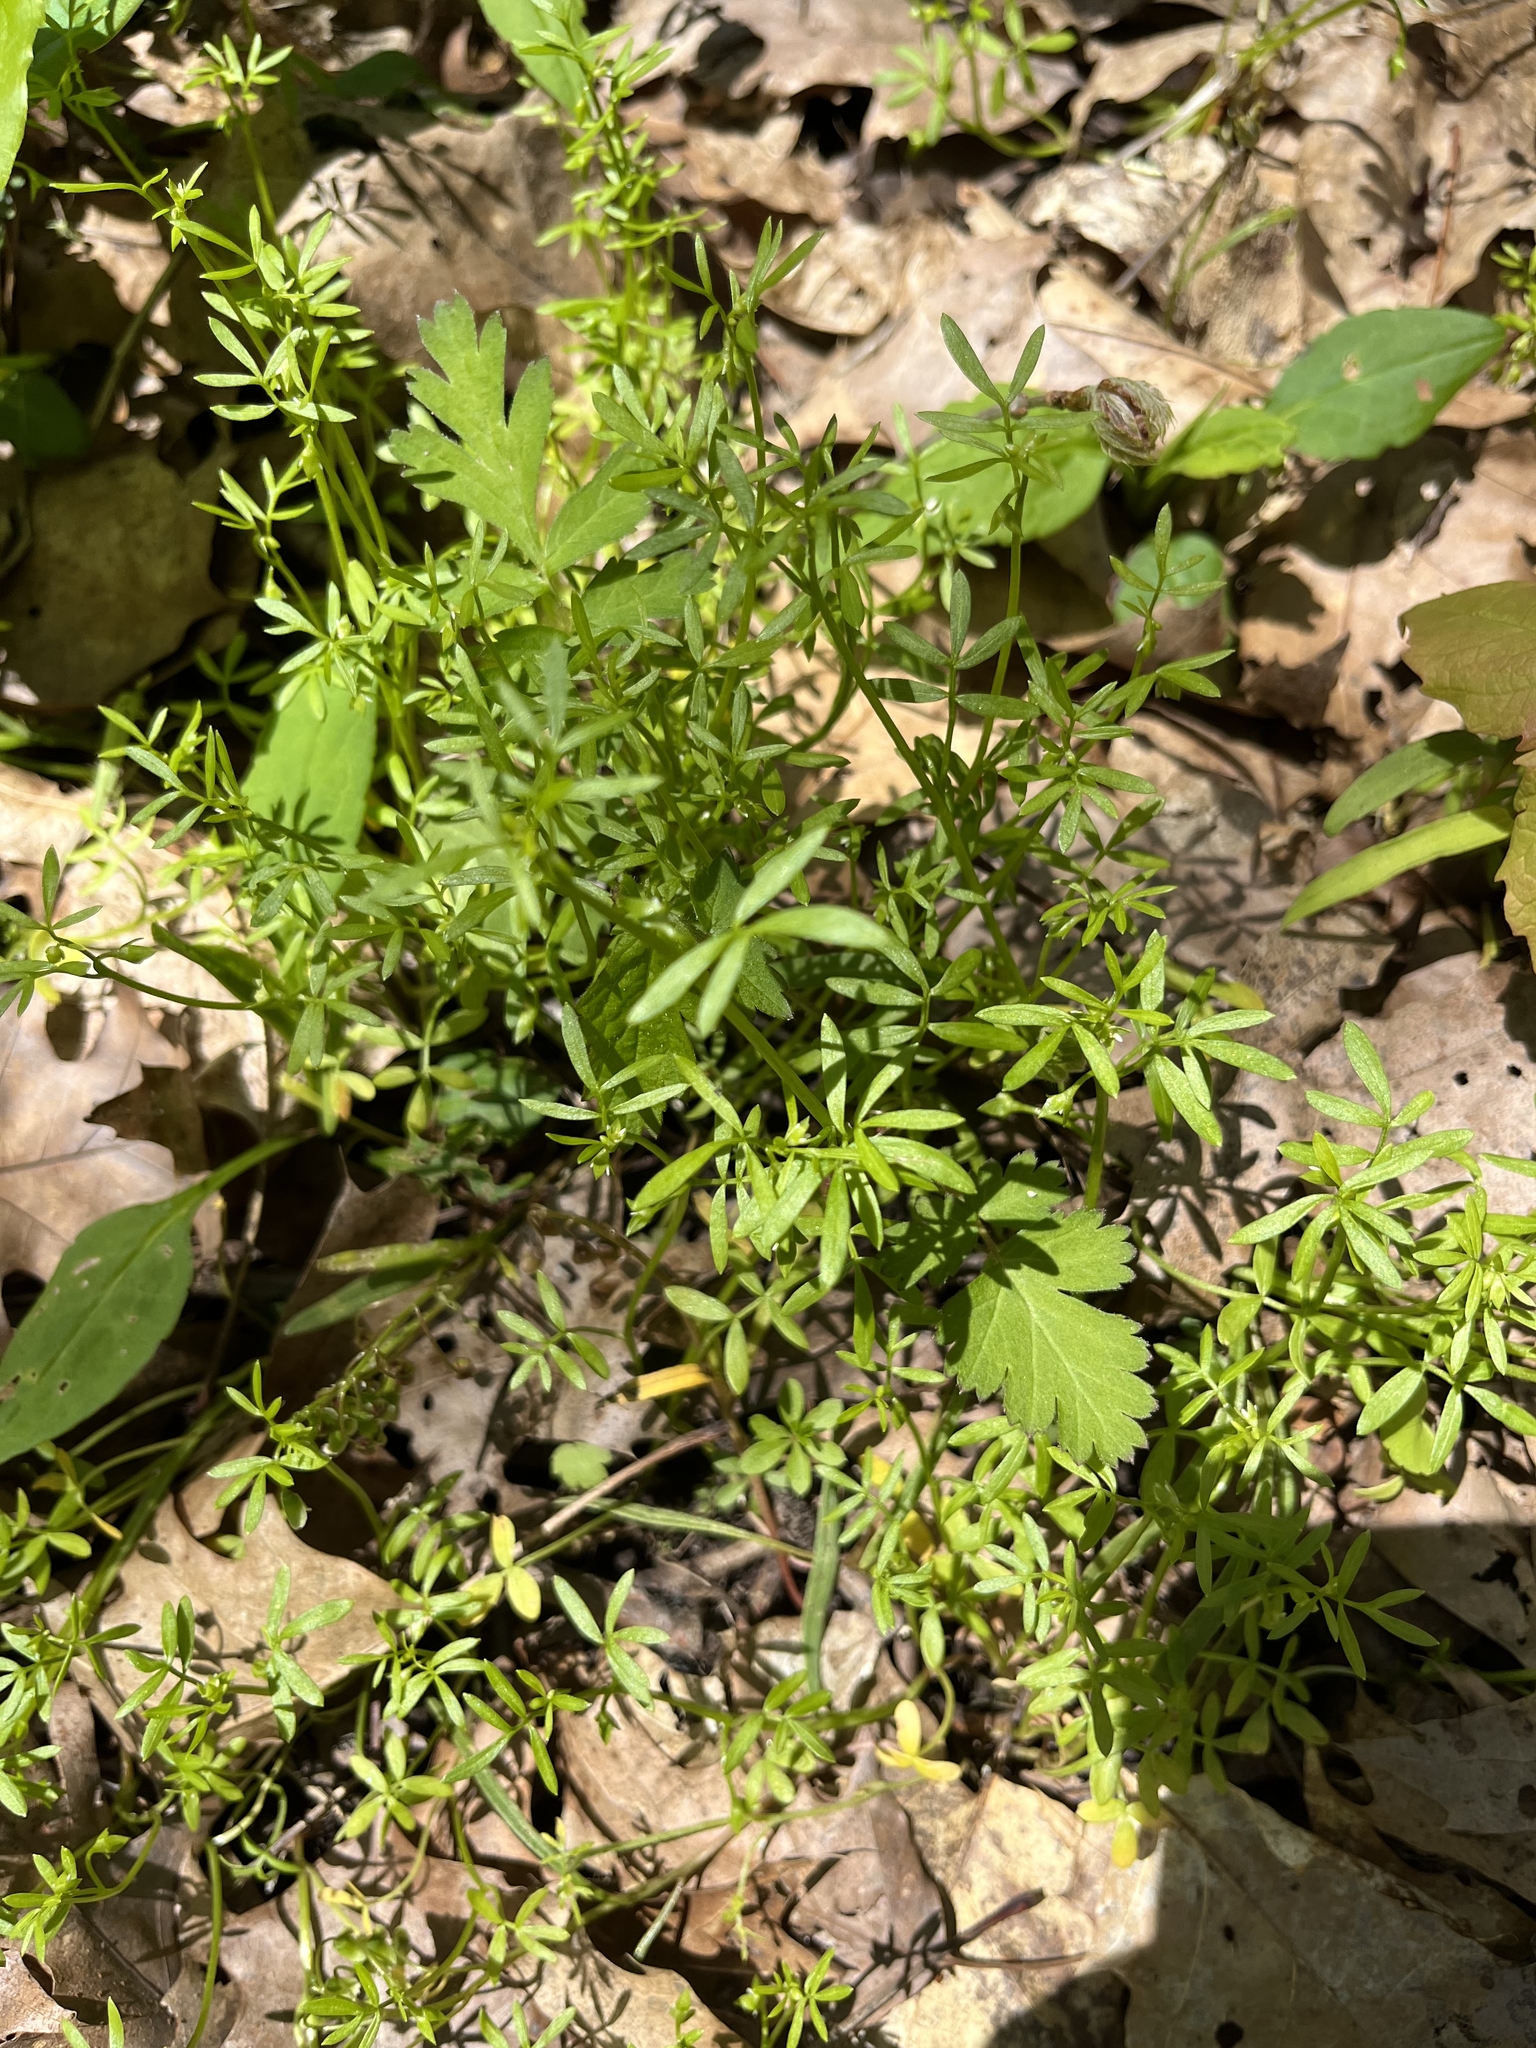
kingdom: Plantae
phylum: Tracheophyta
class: Magnoliopsida
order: Brassicales
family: Limnanthaceae
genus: Floerkea
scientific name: Floerkea proserpinacoides
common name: False mermaid
